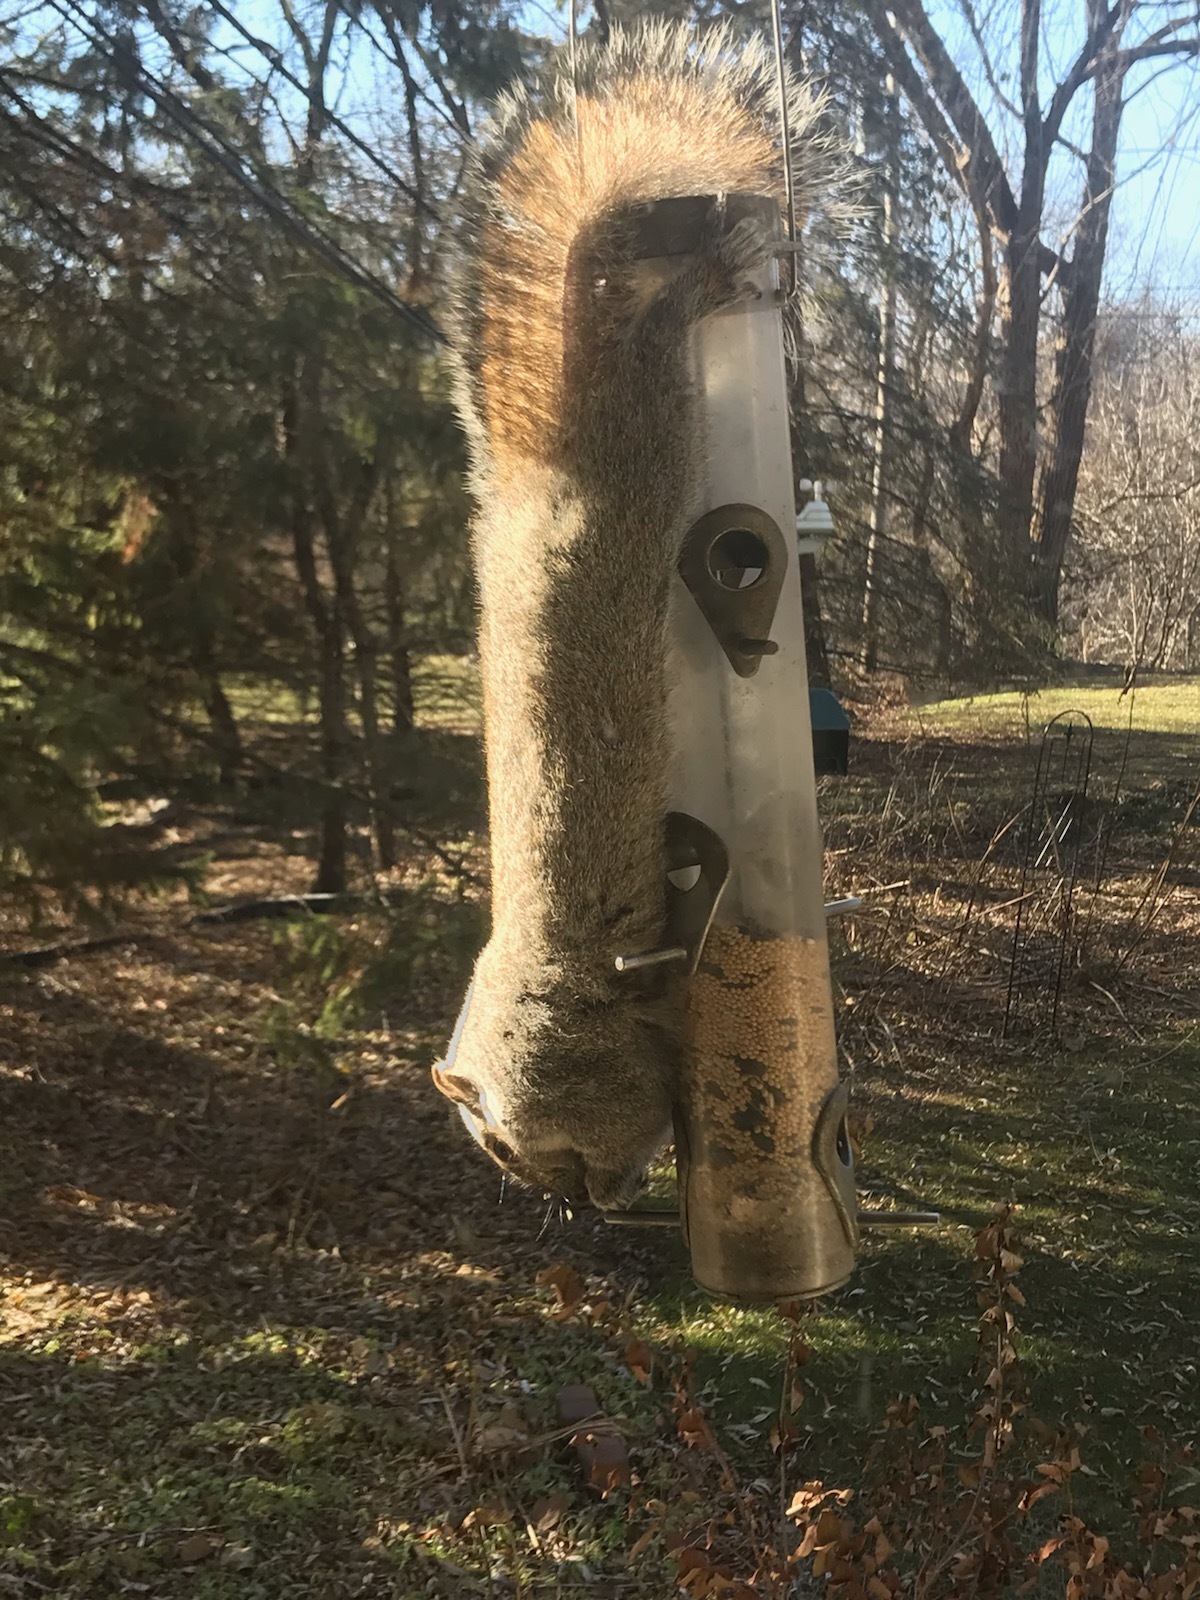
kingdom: Animalia
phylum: Chordata
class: Mammalia
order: Rodentia
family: Sciuridae
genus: Sciurus
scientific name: Sciurus carolinensis
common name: Eastern gray squirrel
